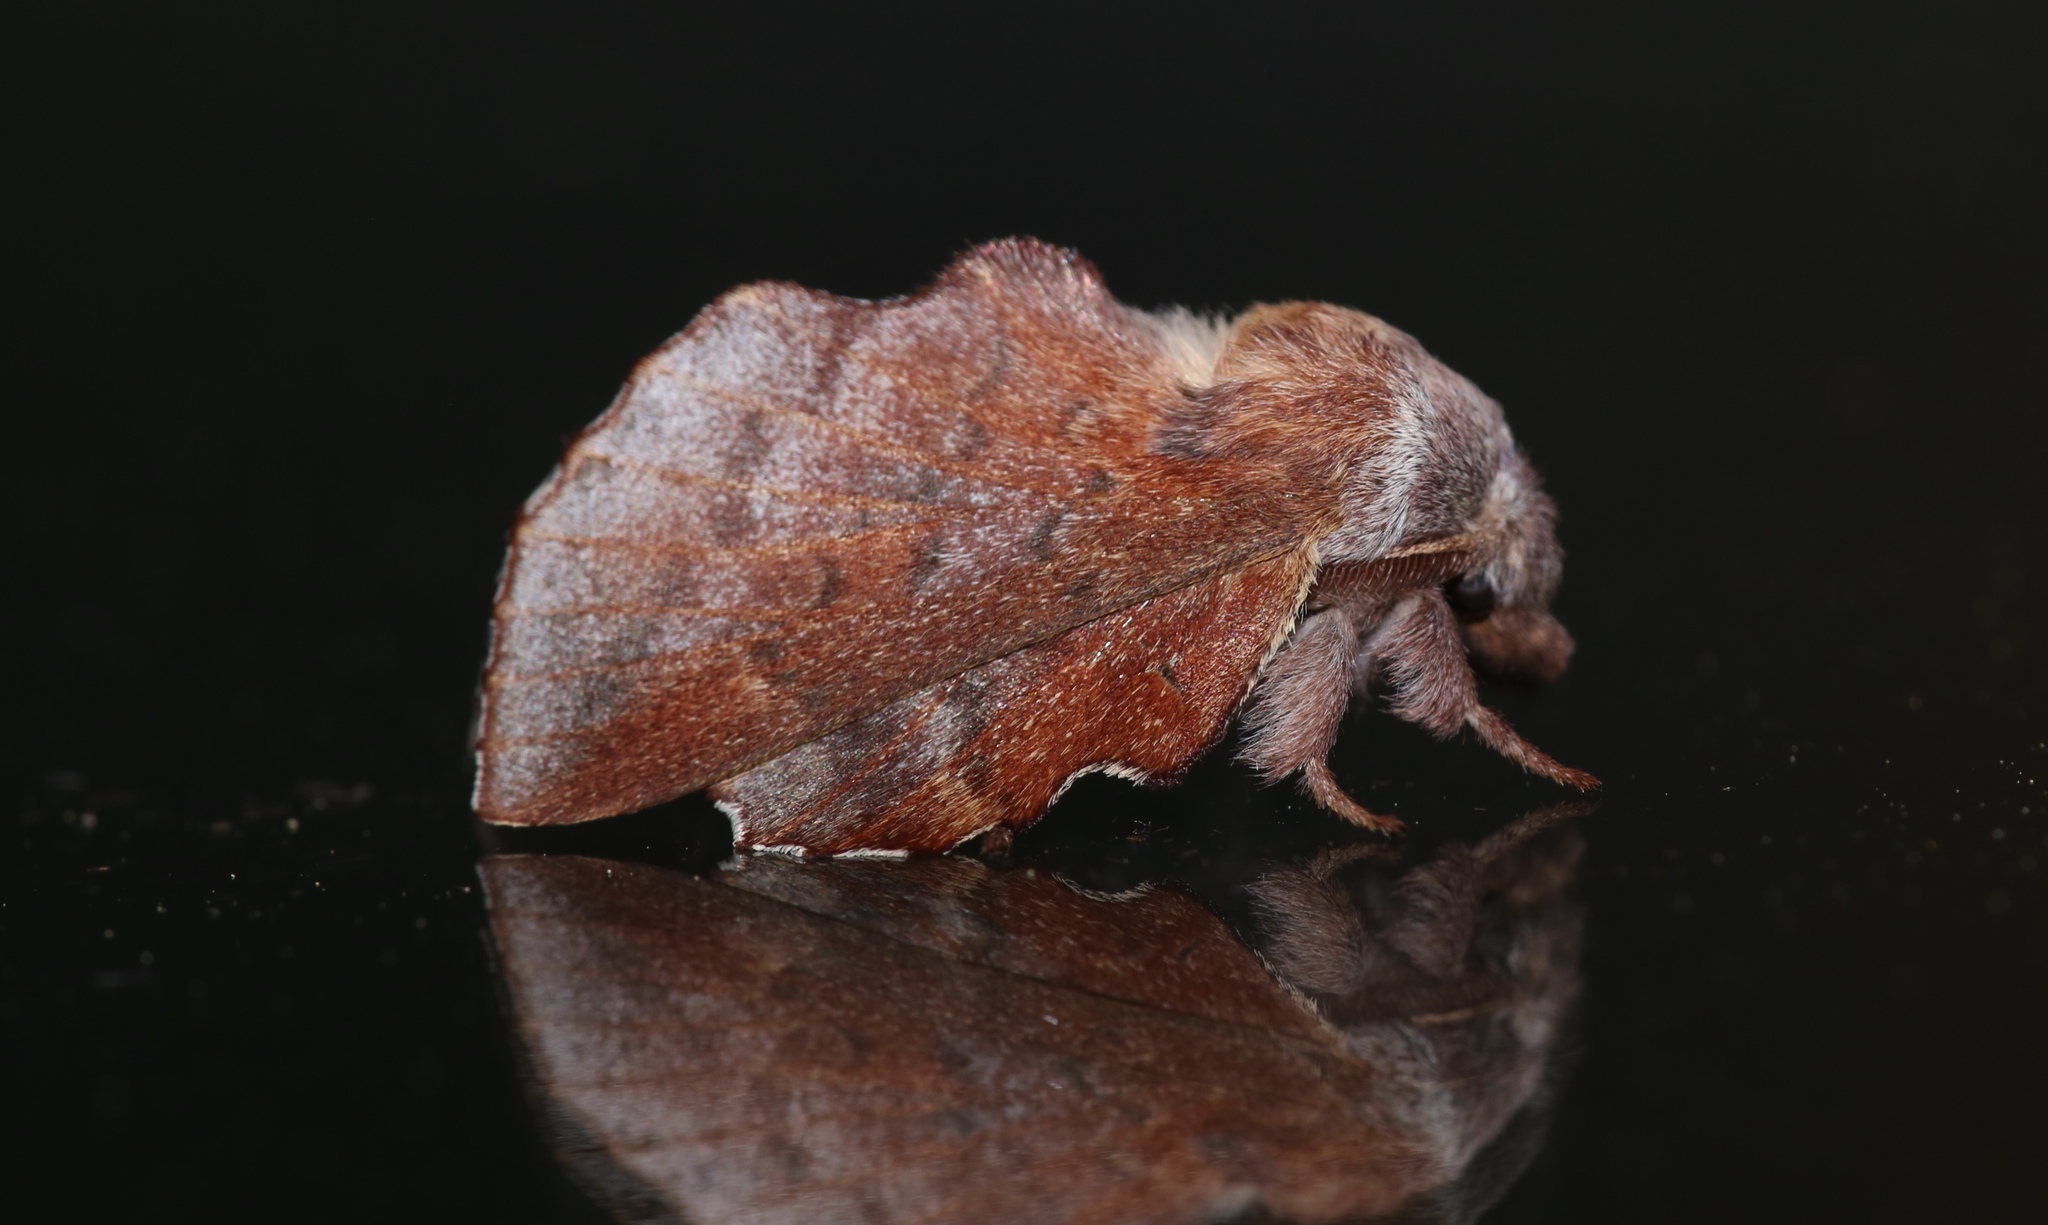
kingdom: Animalia
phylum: Arthropoda
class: Insecta
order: Lepidoptera
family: Lasiocampidae
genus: Phyllodesma
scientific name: Phyllodesma americana
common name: American lappet moth
